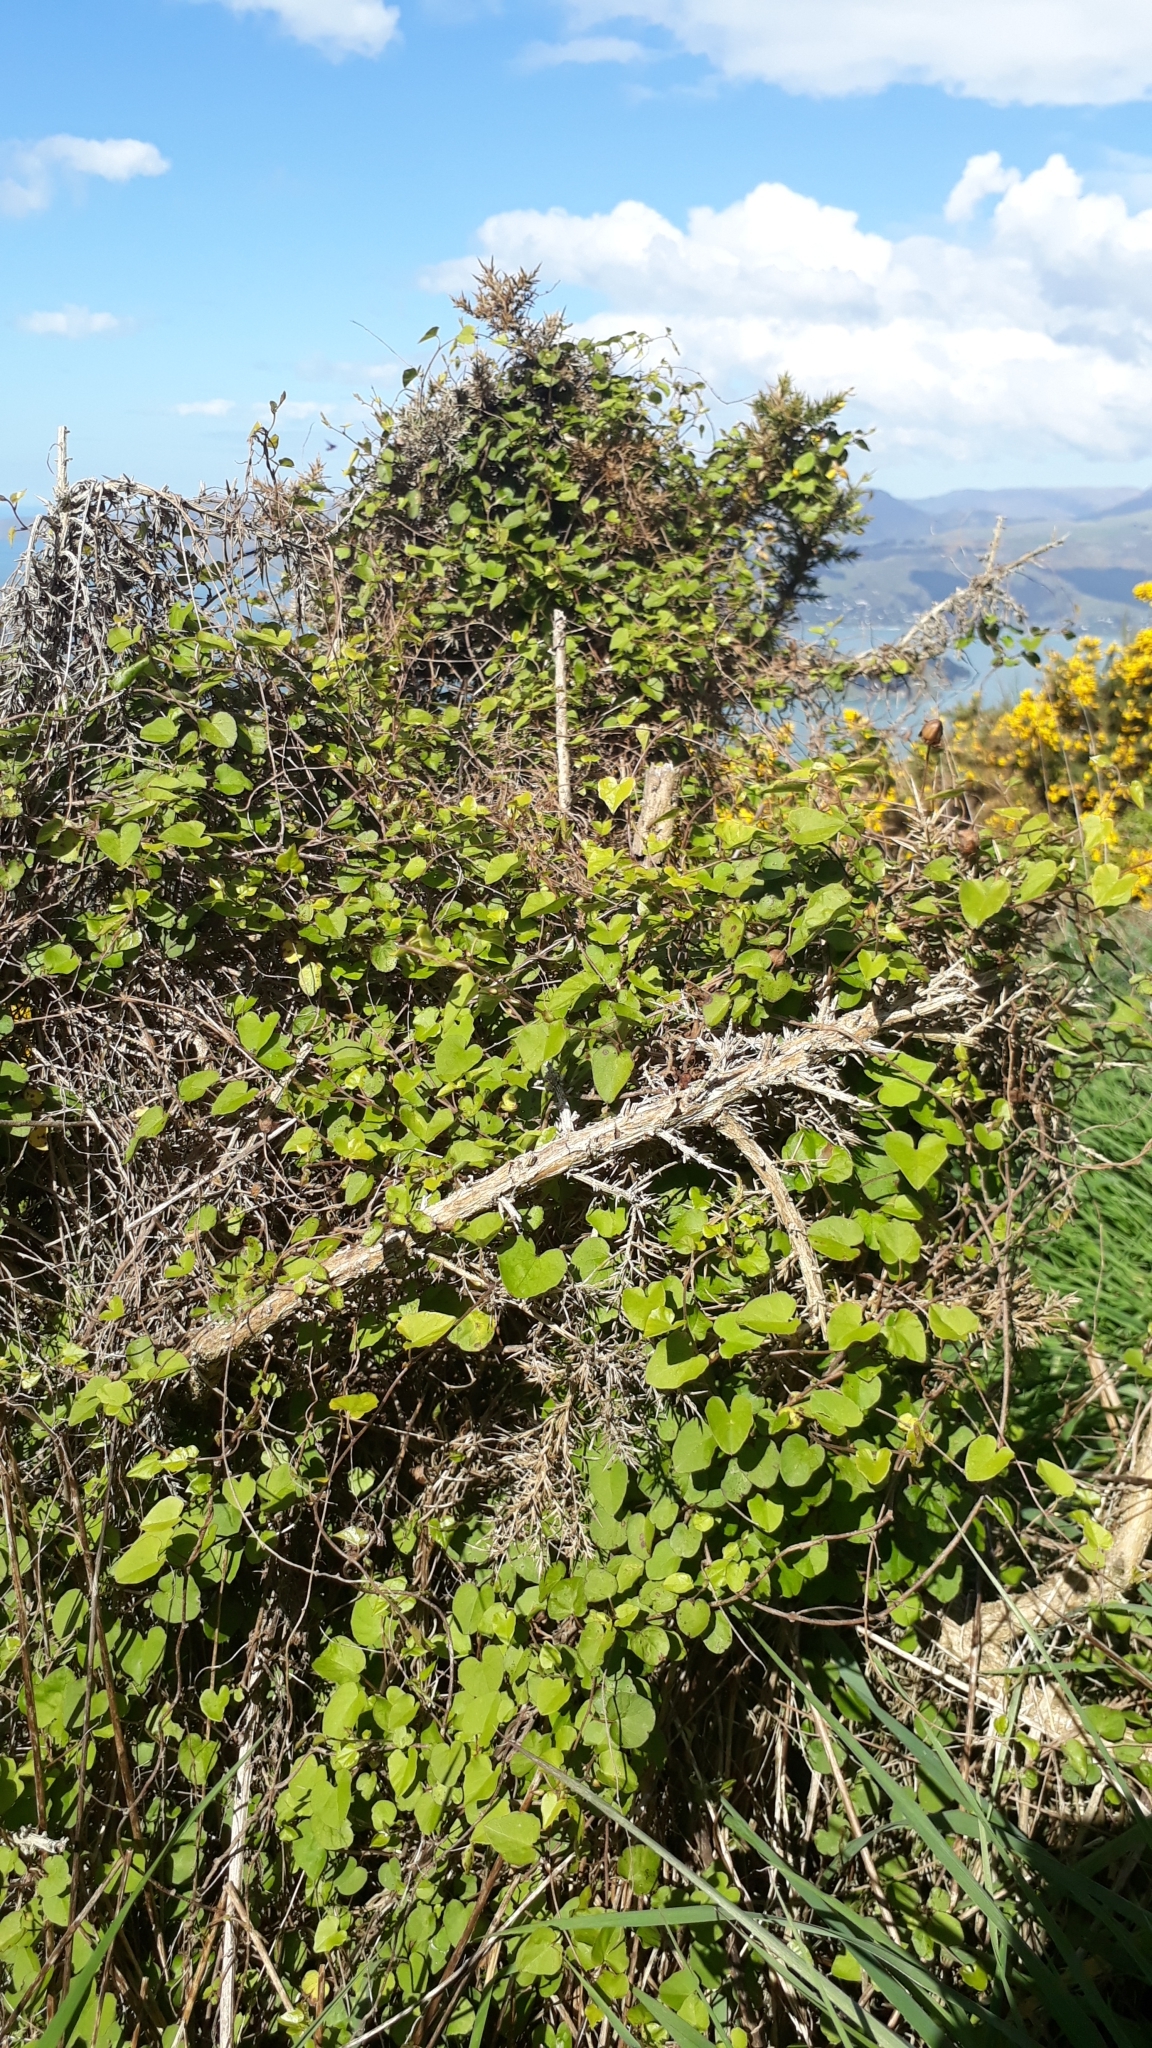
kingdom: Plantae
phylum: Tracheophyta
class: Magnoliopsida
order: Solanales
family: Convolvulaceae
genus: Calystegia
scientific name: Calystegia tuguriorum
